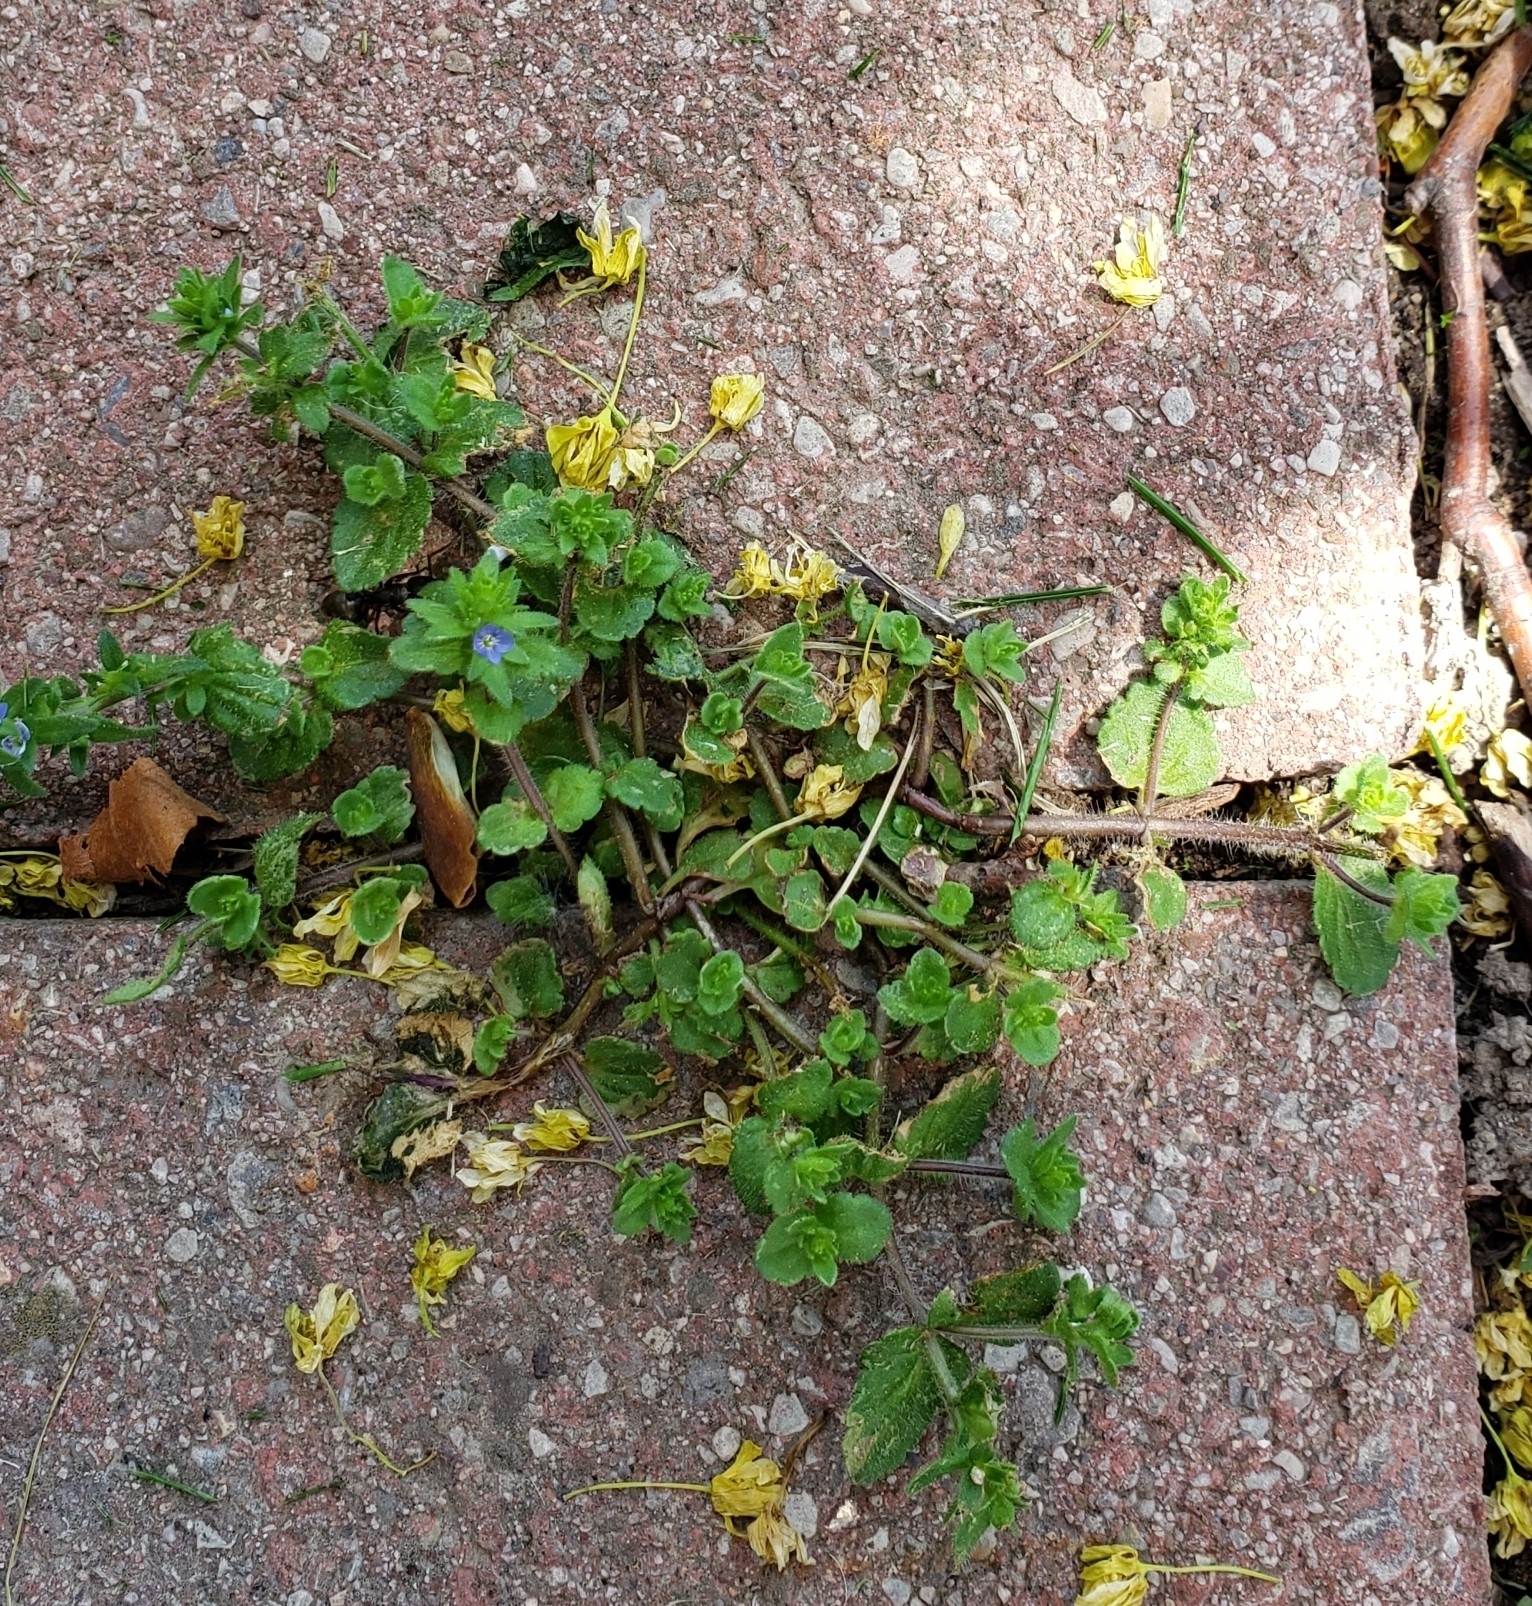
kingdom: Plantae
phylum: Tracheophyta
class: Magnoliopsida
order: Lamiales
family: Plantaginaceae
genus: Veronica
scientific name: Veronica arvensis
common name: Corn speedwell
